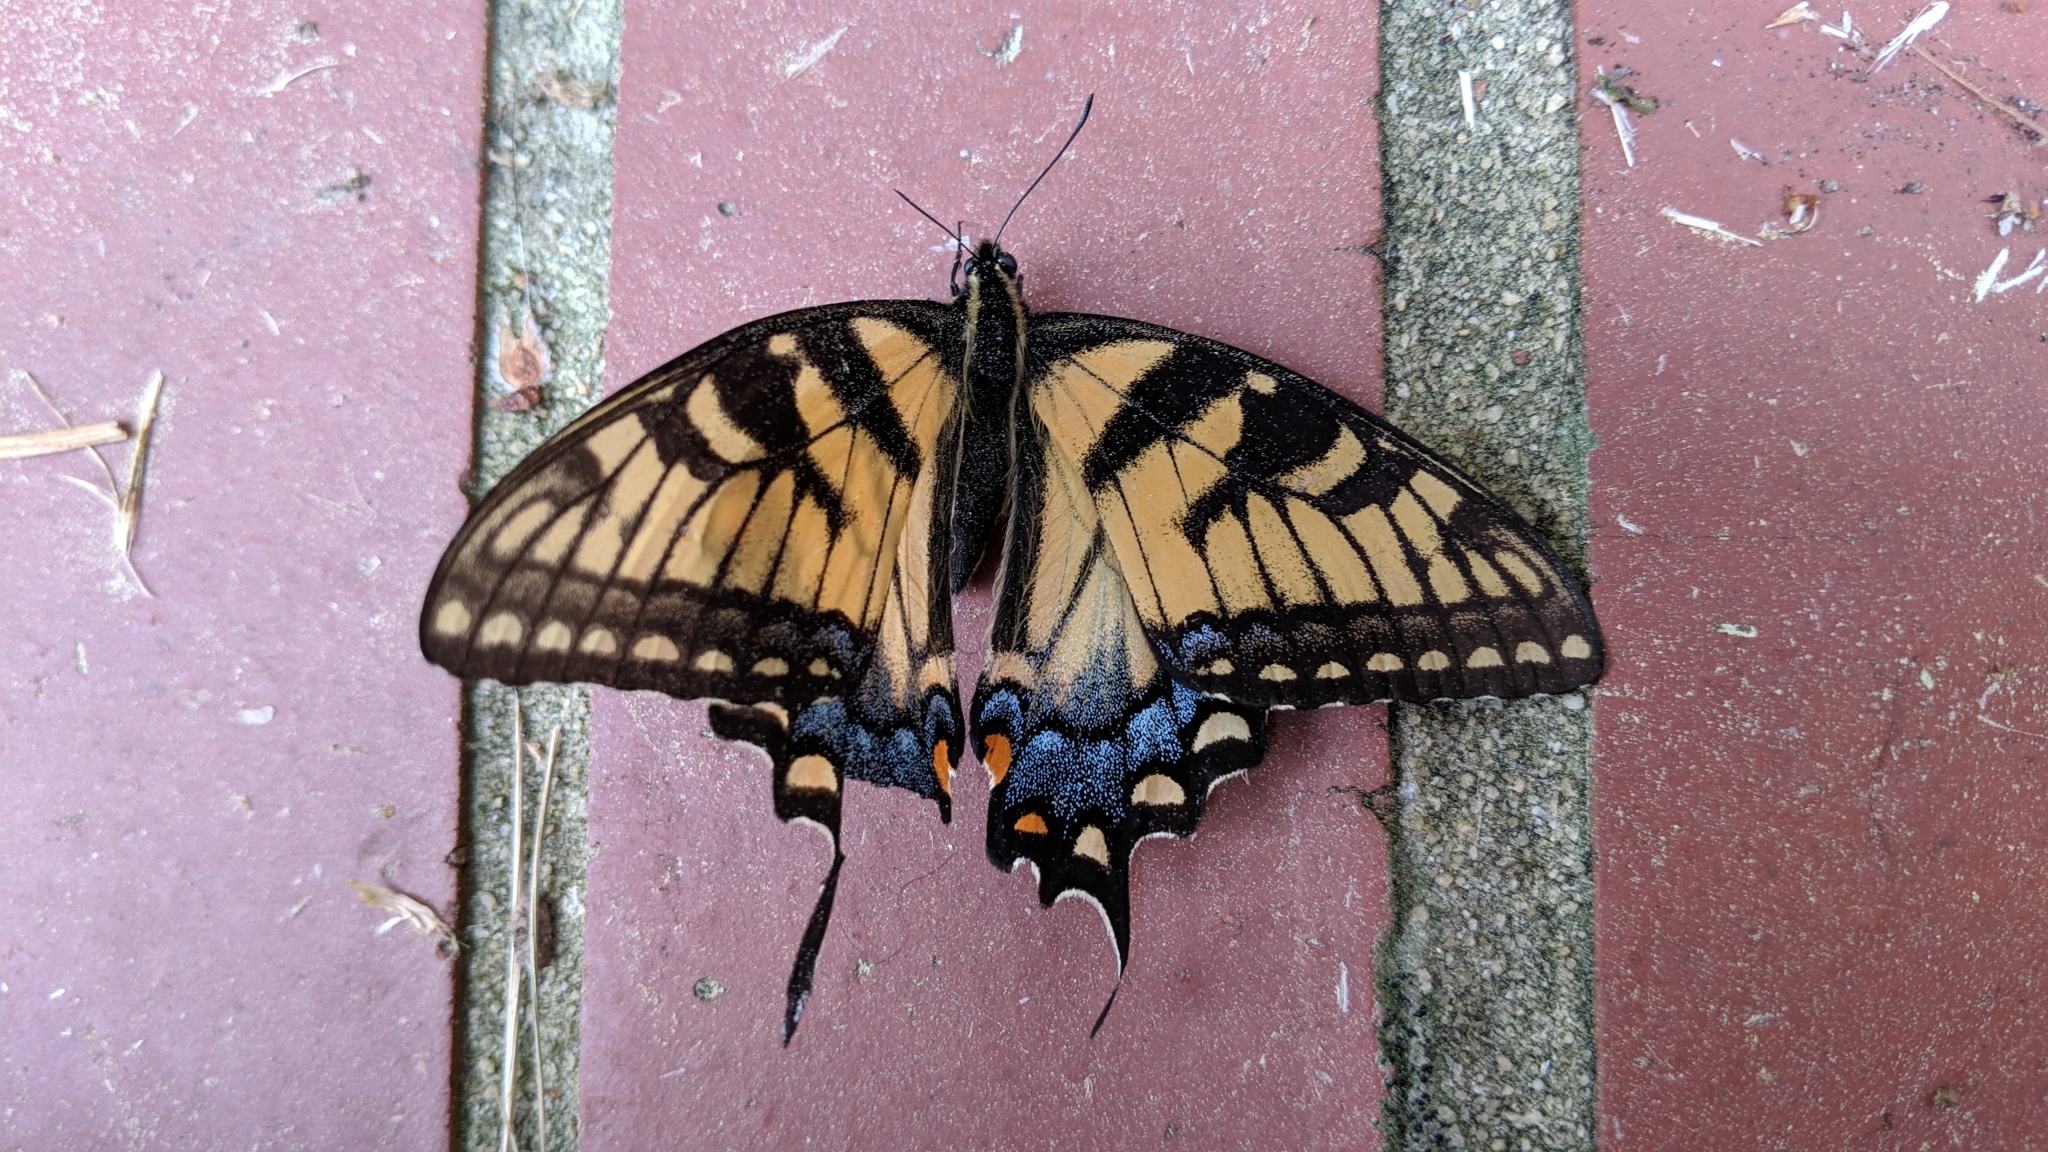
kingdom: Animalia
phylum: Arthropoda
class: Insecta
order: Lepidoptera
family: Papilionidae
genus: Papilio
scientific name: Papilio glaucus
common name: Tiger swallowtail
